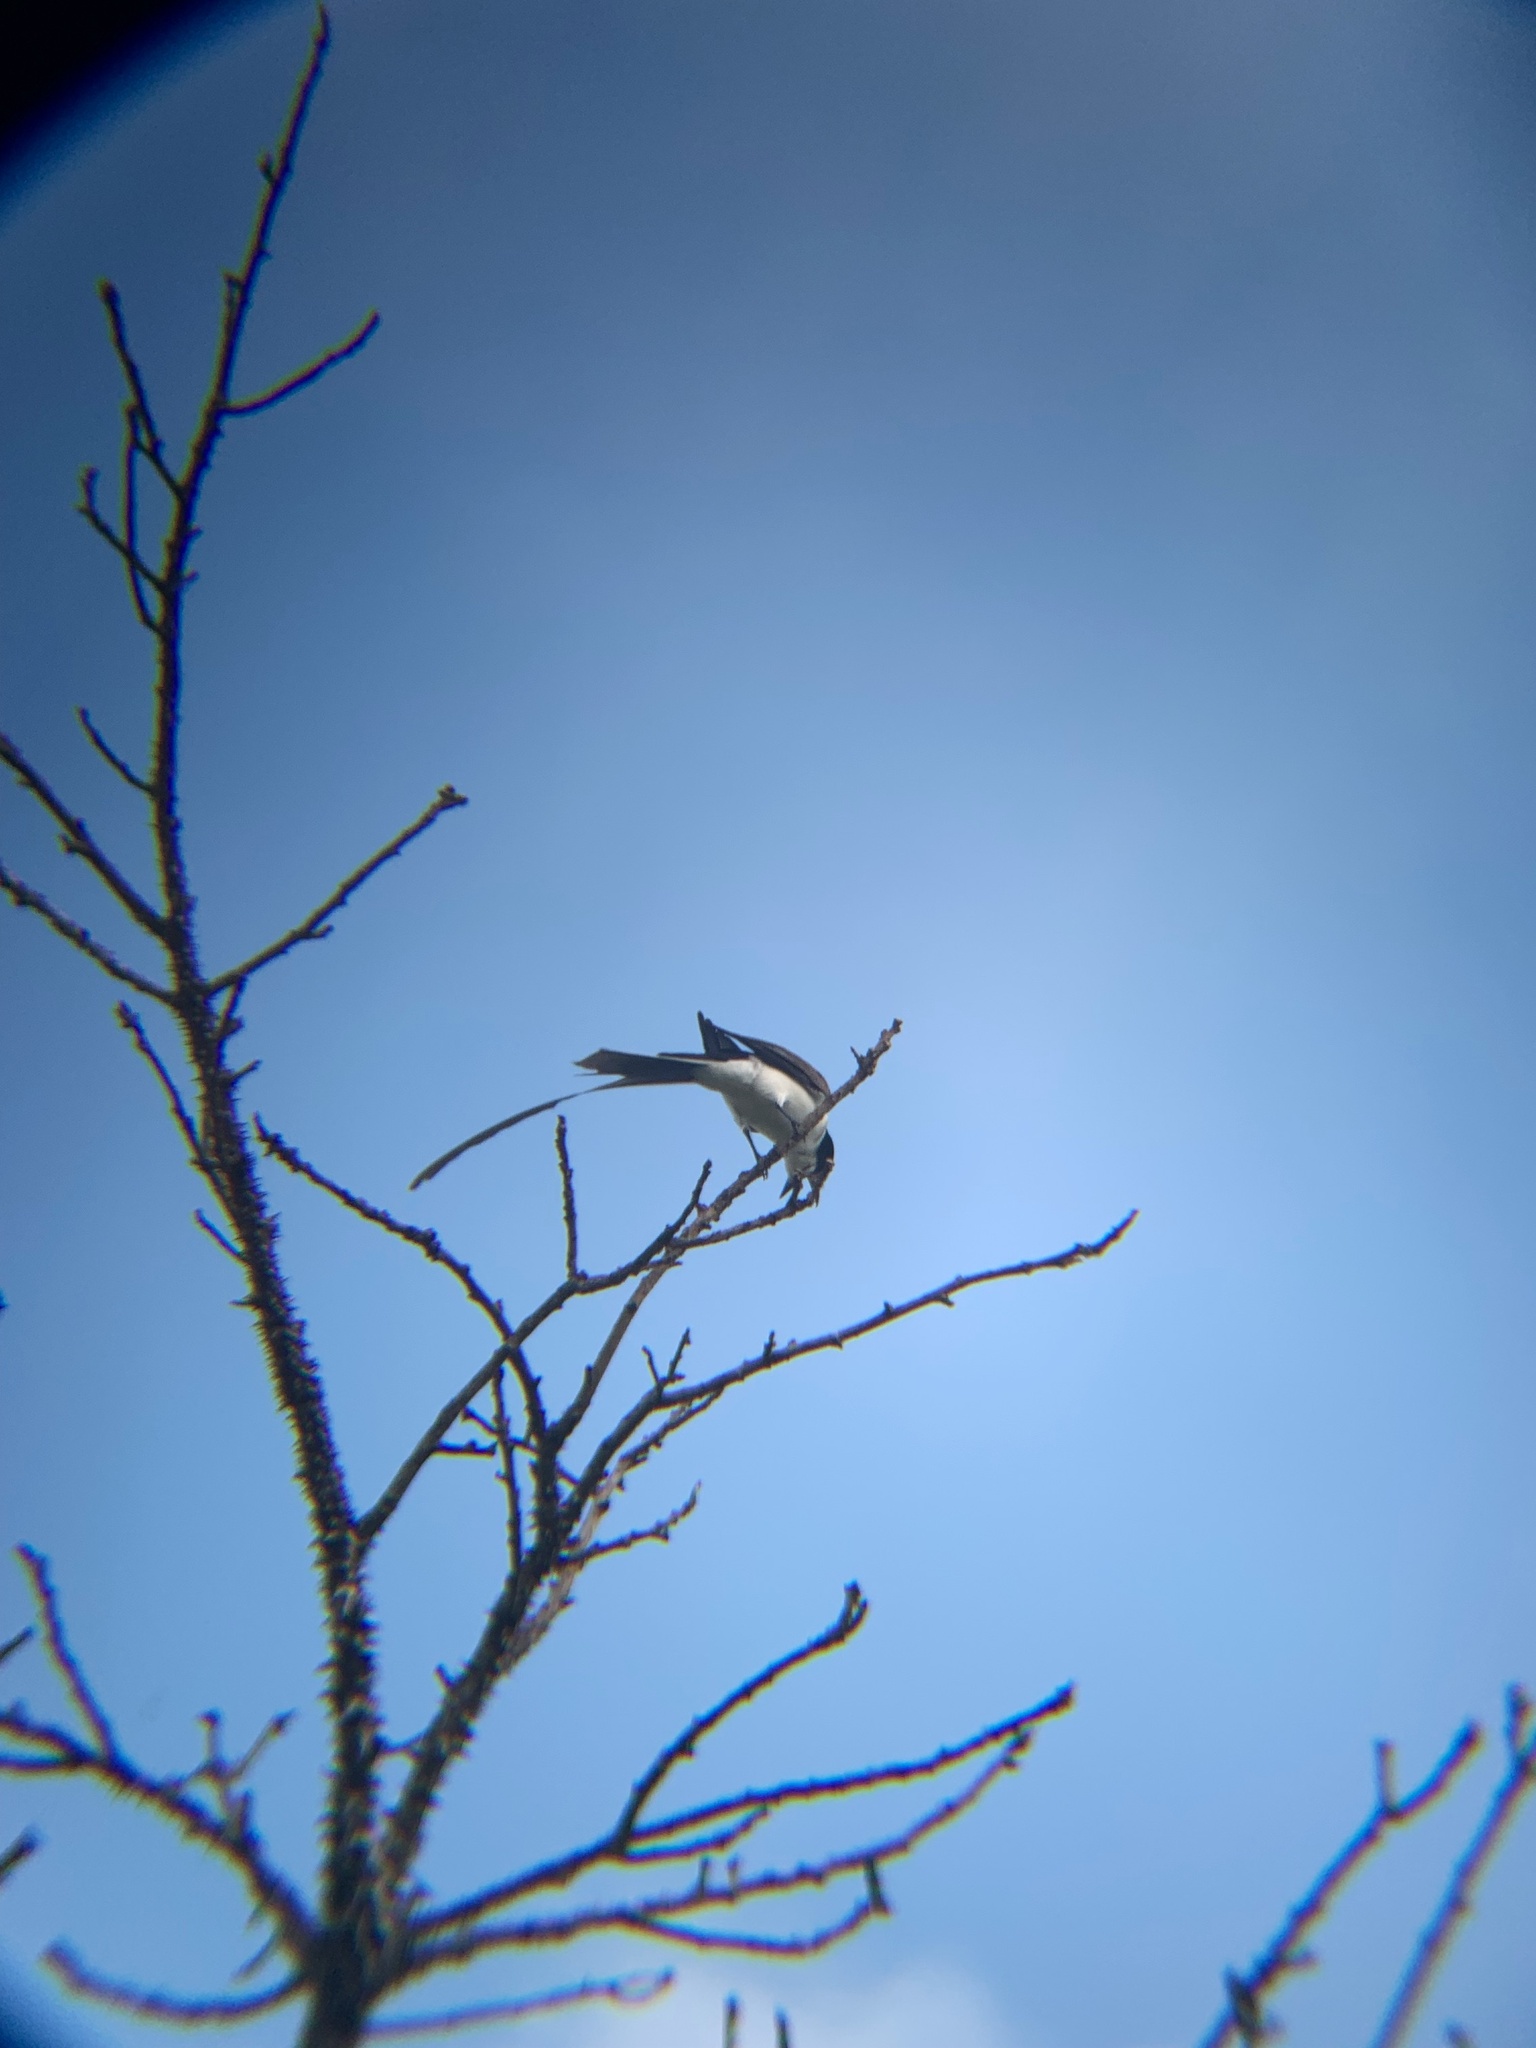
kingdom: Animalia
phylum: Chordata
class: Aves
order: Passeriformes
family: Tyrannidae
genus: Tyrannus
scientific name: Tyrannus savana
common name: Fork-tailed flycatcher
